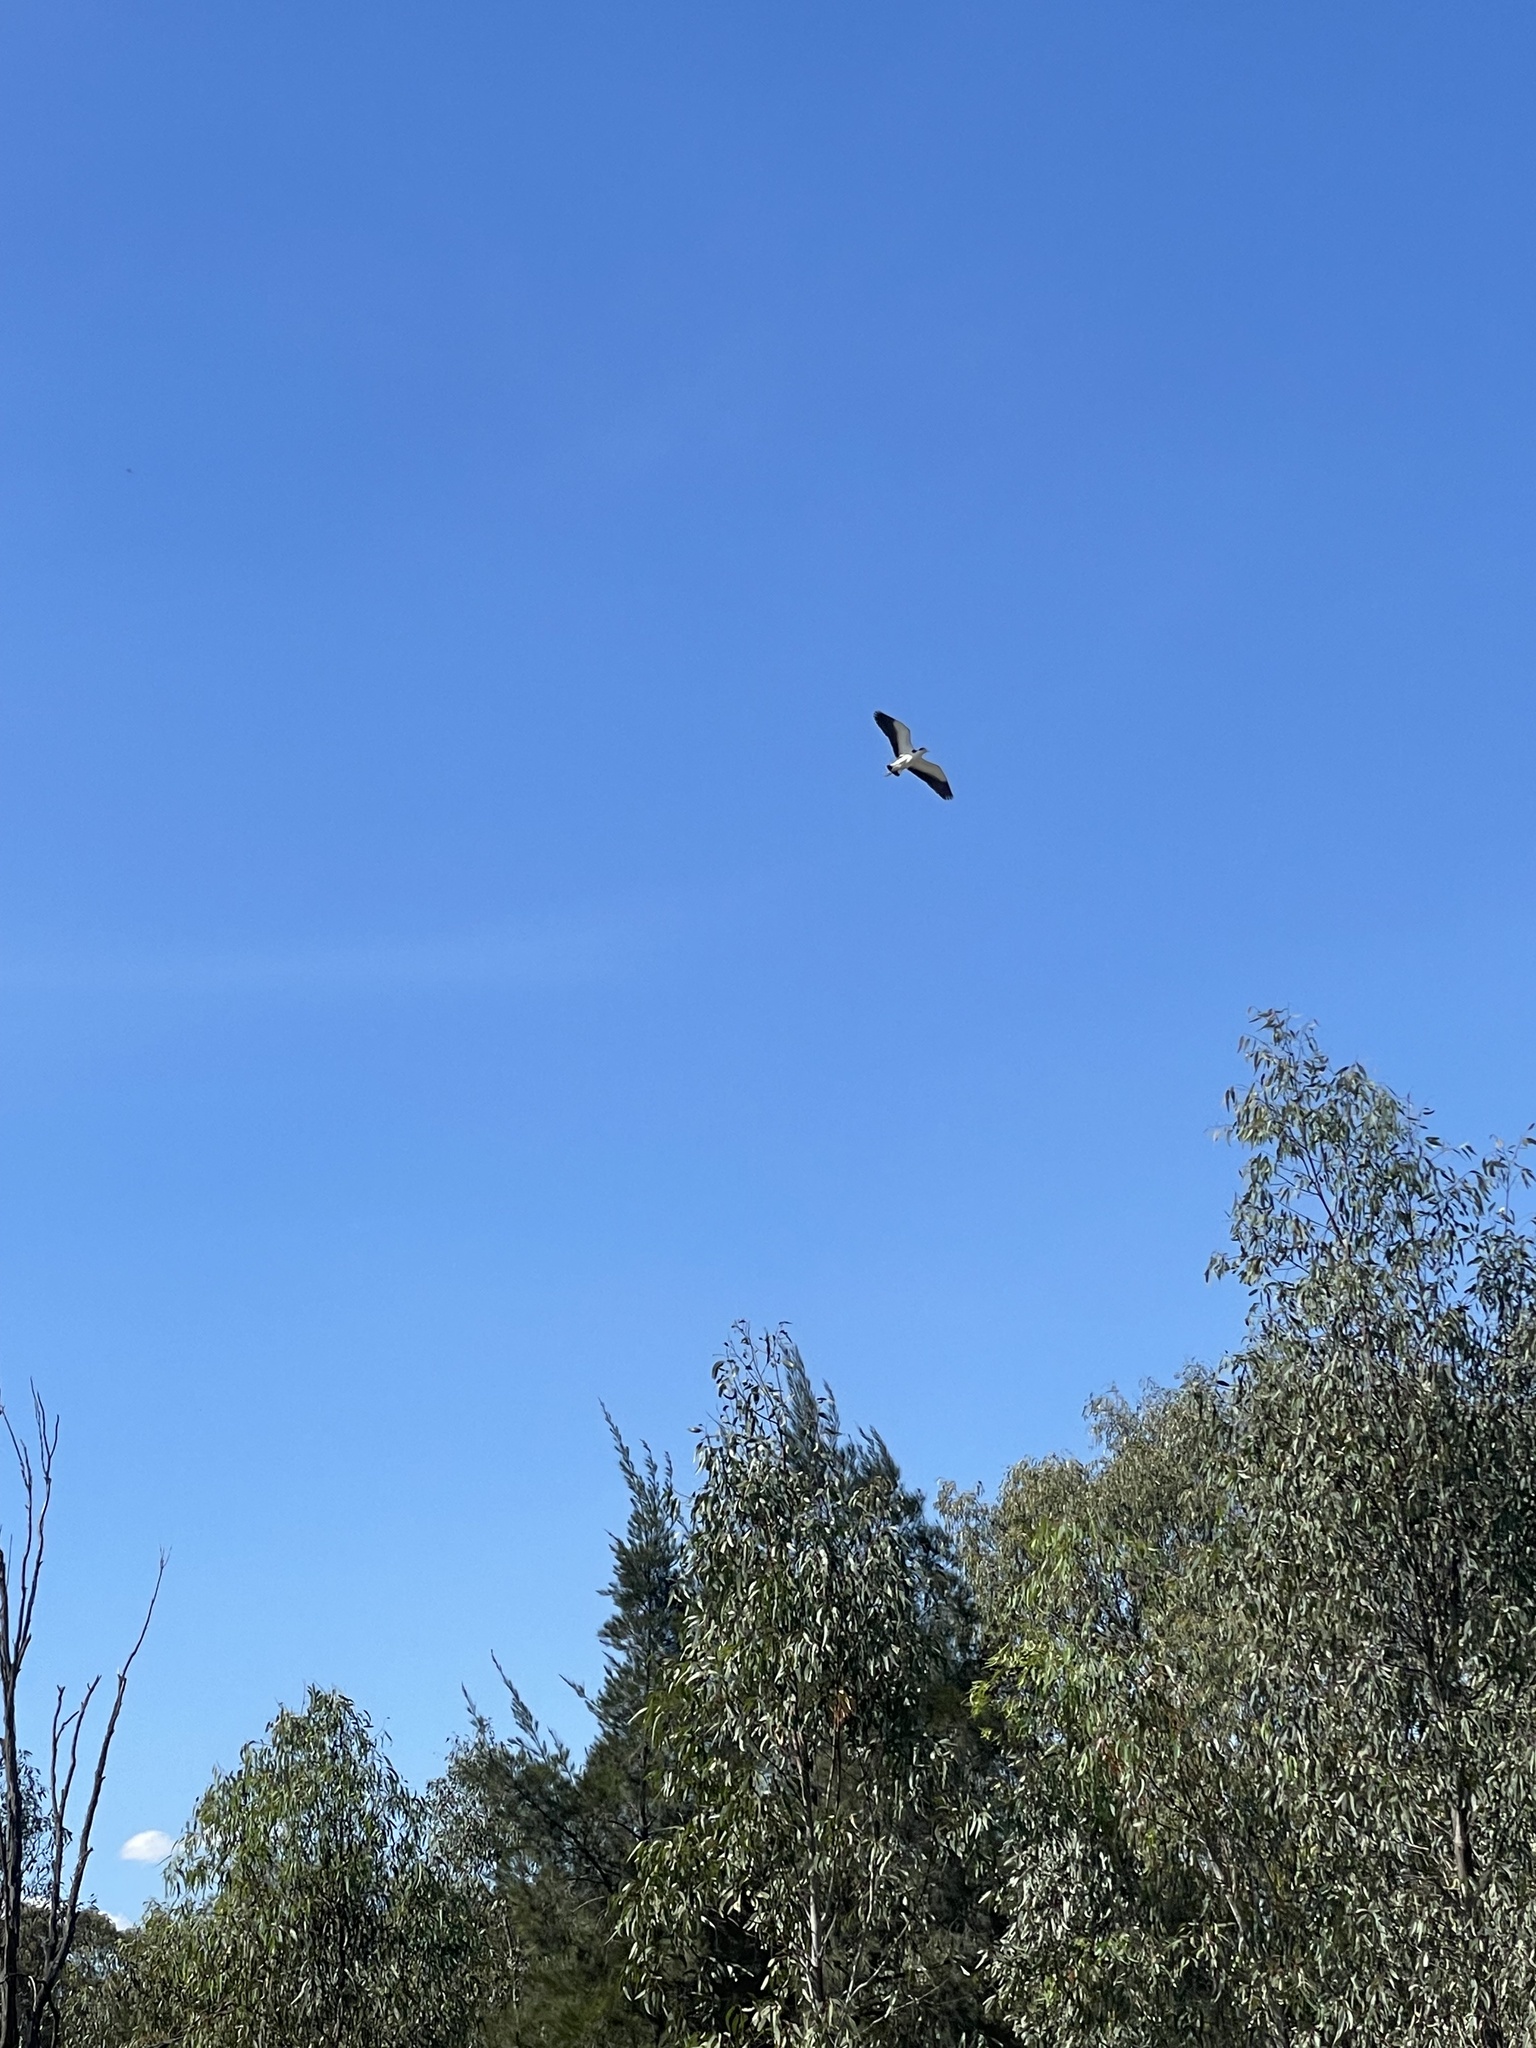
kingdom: Animalia
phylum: Chordata
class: Aves
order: Charadriiformes
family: Charadriidae
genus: Vanellus
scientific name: Vanellus miles
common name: Masked lapwing
